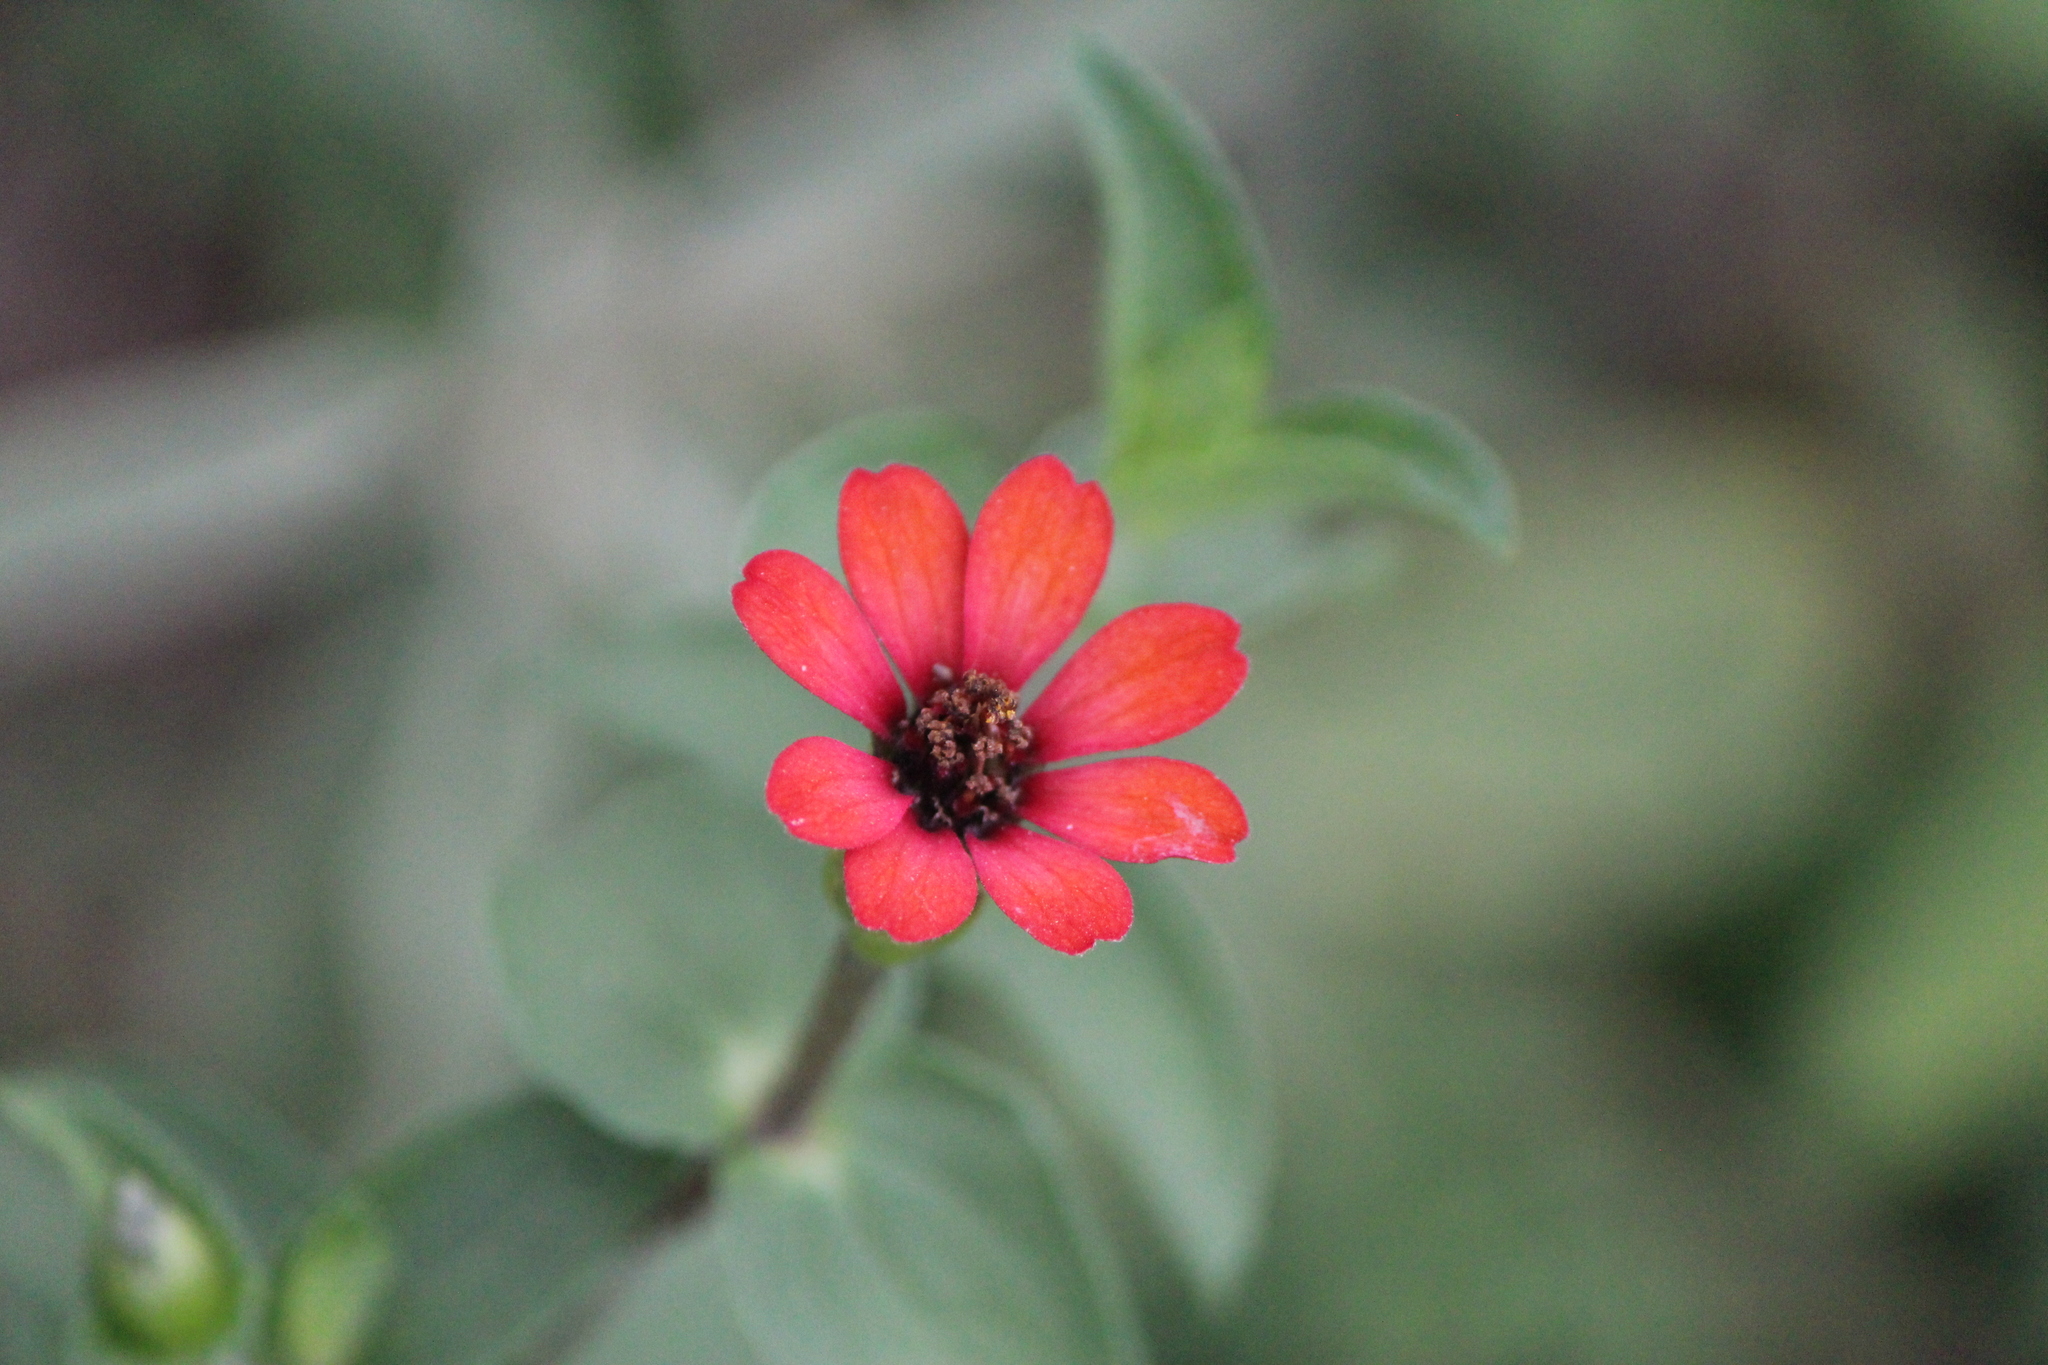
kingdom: Plantae
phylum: Tracheophyta
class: Magnoliopsida
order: Asterales
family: Asteraceae
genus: Zinnia
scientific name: Zinnia peruviana
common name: Peruvian zinnia
